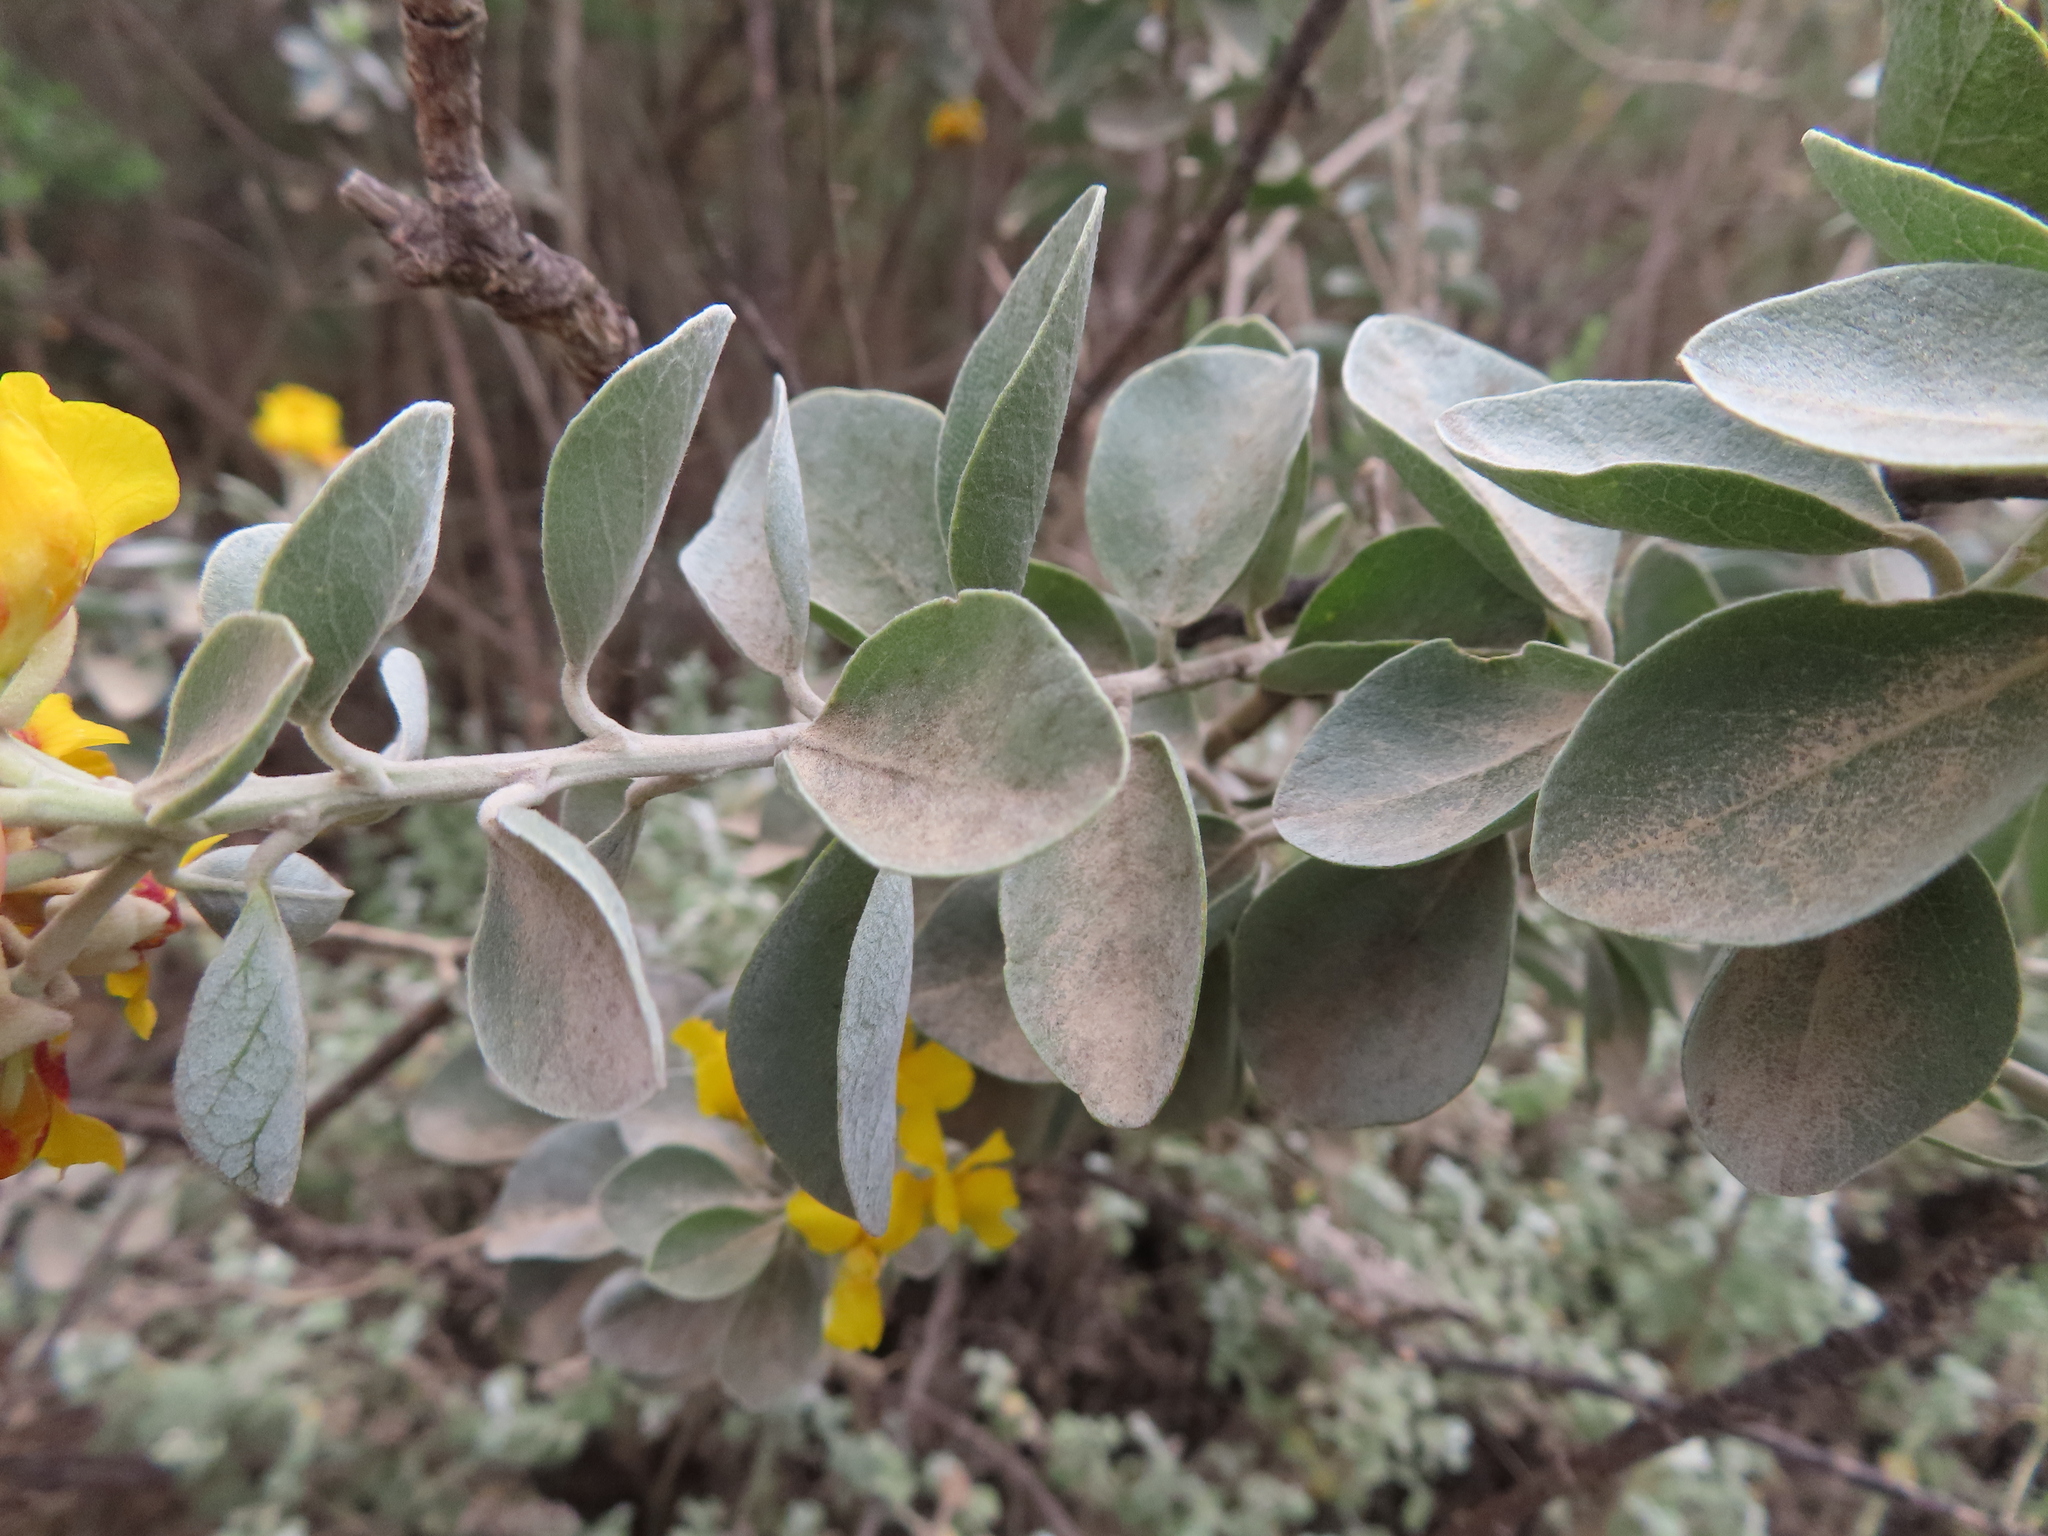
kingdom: Plantae
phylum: Tracheophyta
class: Magnoliopsida
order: Fabales
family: Fabaceae
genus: Stirtonanthus
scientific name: Stirtonanthus taylorianus
